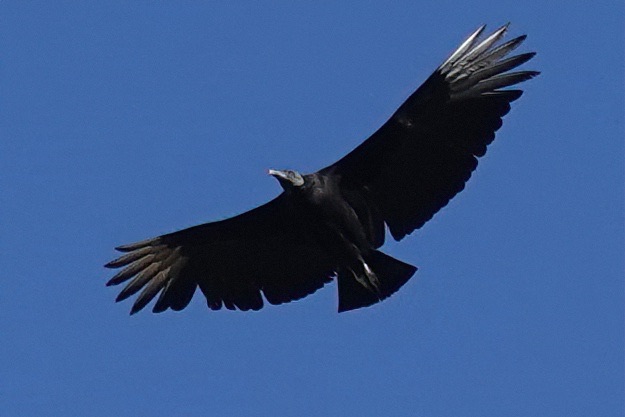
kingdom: Animalia
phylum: Chordata
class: Aves
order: Accipitriformes
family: Cathartidae
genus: Coragyps
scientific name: Coragyps atratus
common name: Black vulture
